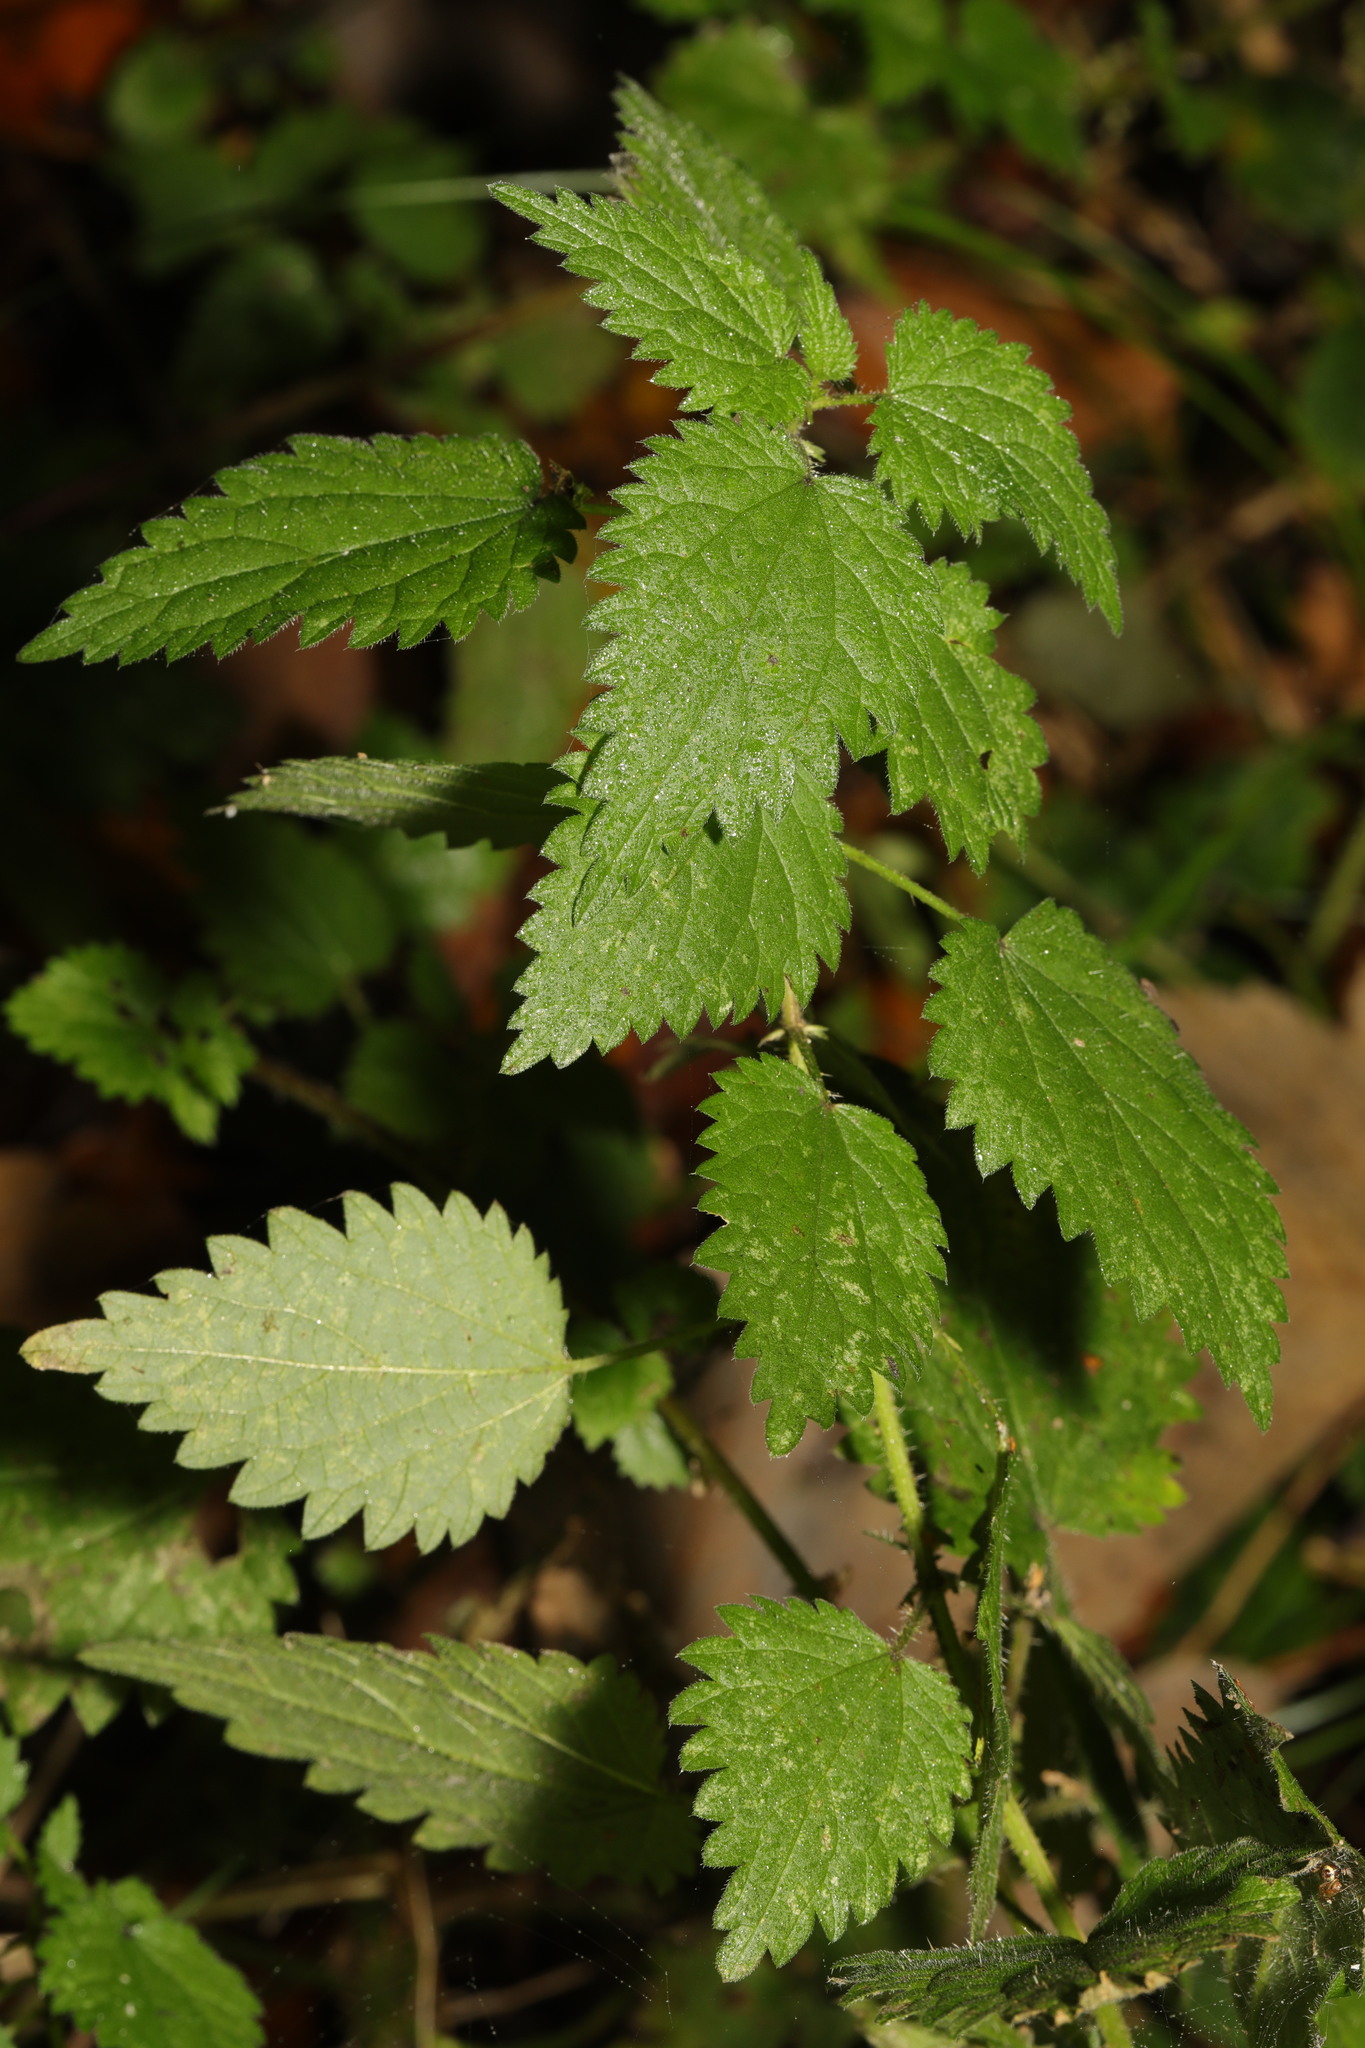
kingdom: Plantae
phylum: Tracheophyta
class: Magnoliopsida
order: Rosales
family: Urticaceae
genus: Urtica
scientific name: Urtica dioica
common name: Common nettle
